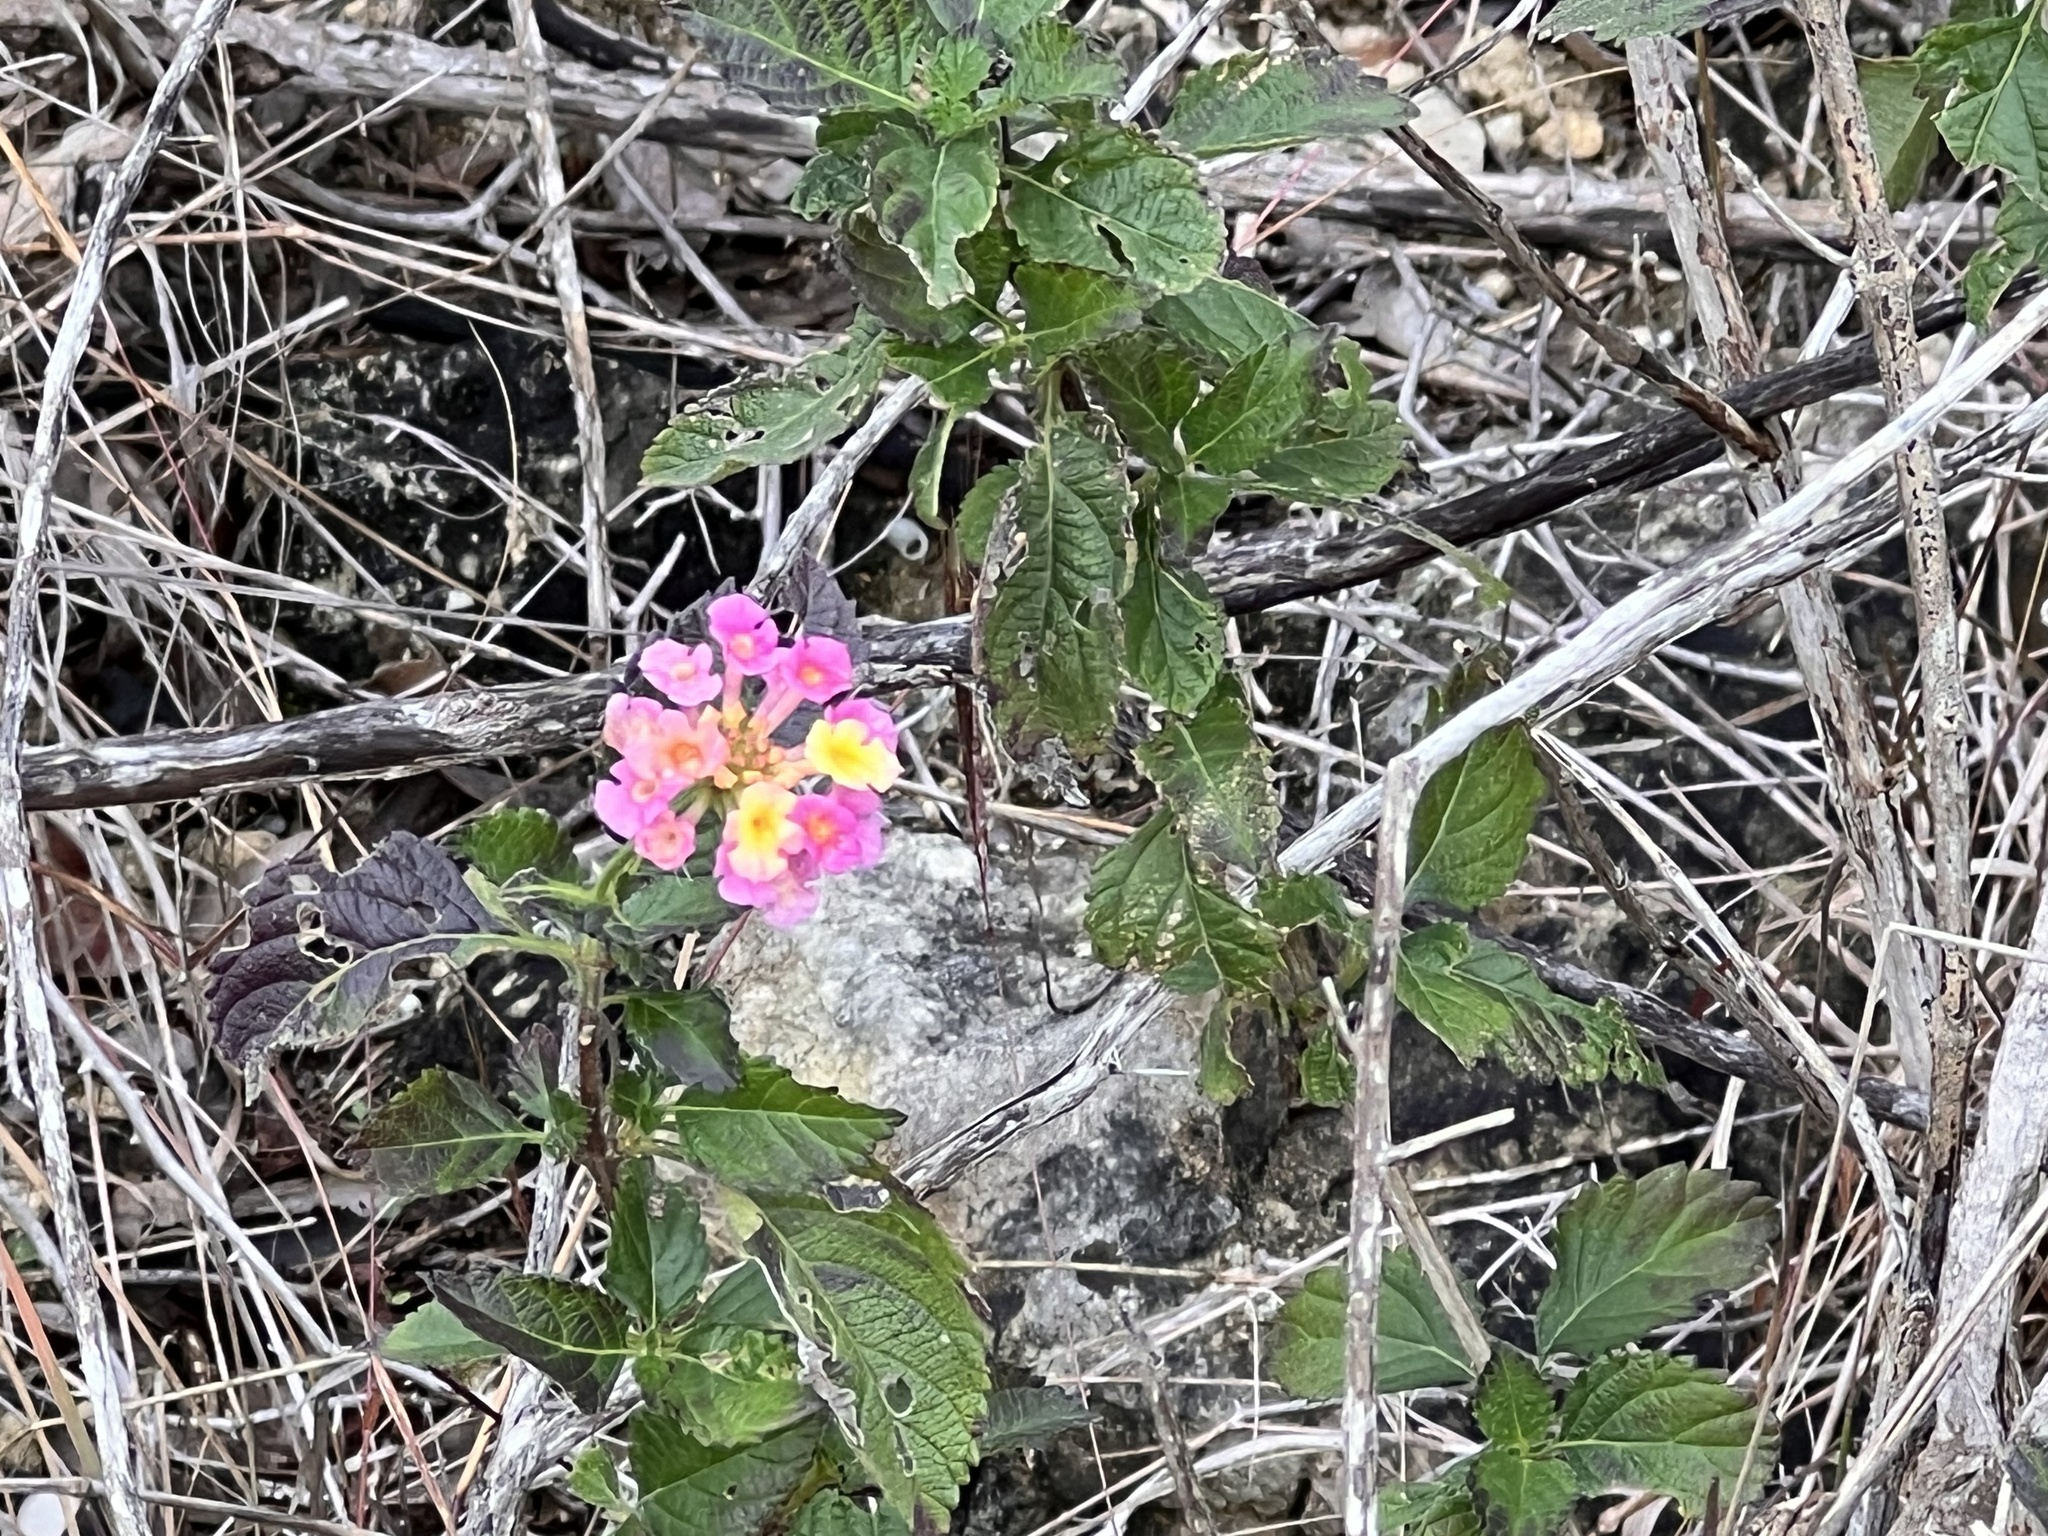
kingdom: Plantae
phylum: Tracheophyta
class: Magnoliopsida
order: Lamiales
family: Verbenaceae
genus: Lantana
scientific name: Lantana strigocamara
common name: Lantana
